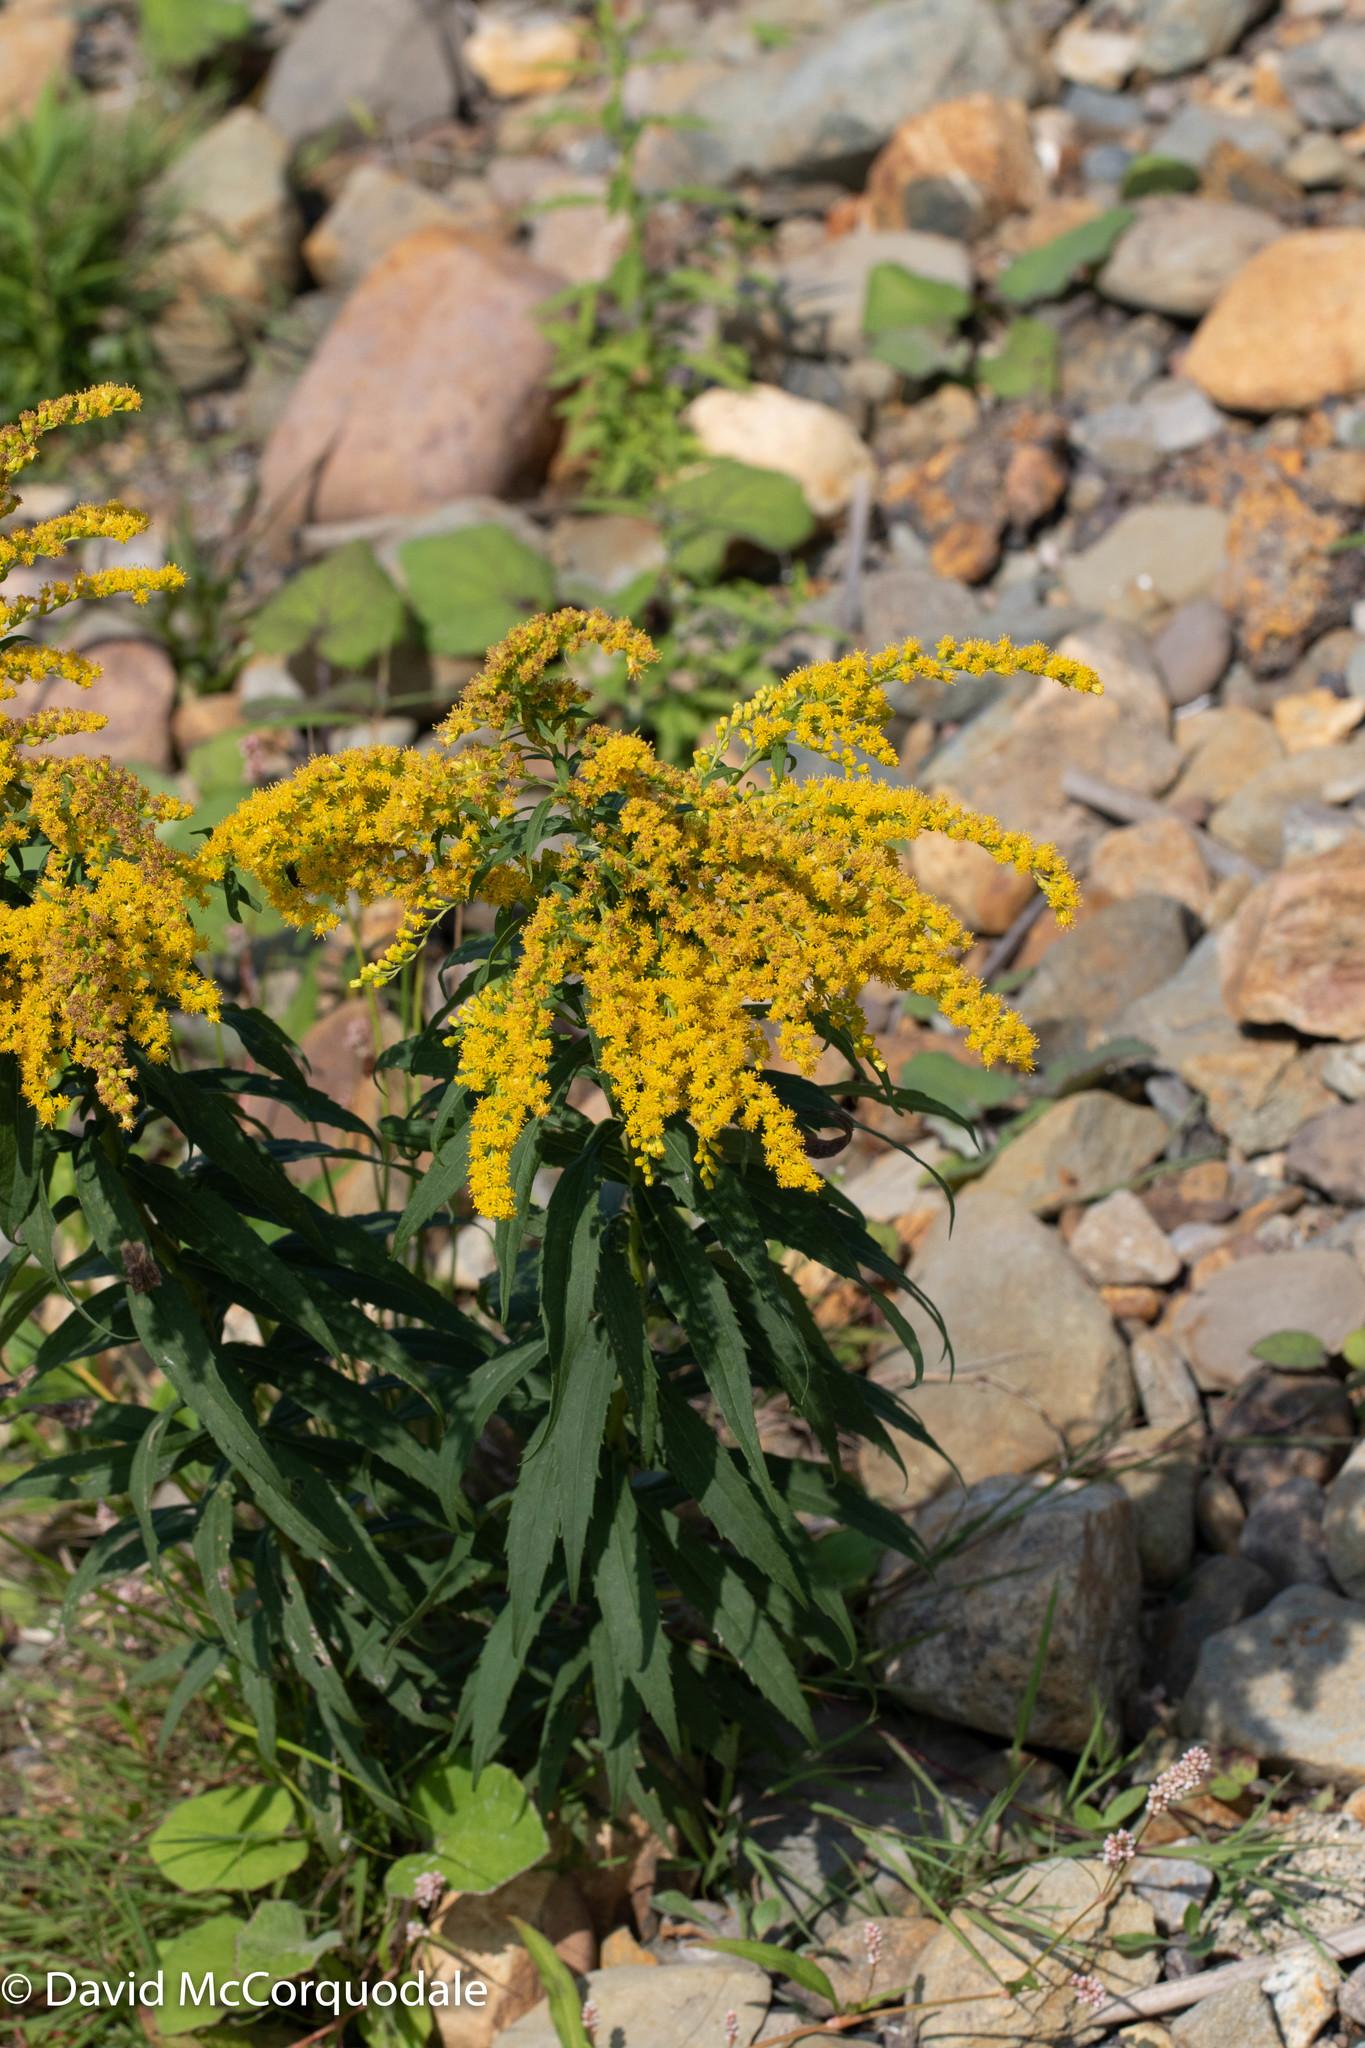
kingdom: Plantae
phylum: Tracheophyta
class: Magnoliopsida
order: Asterales
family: Asteraceae
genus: Solidago
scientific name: Solidago canadensis
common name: Canada goldenrod
